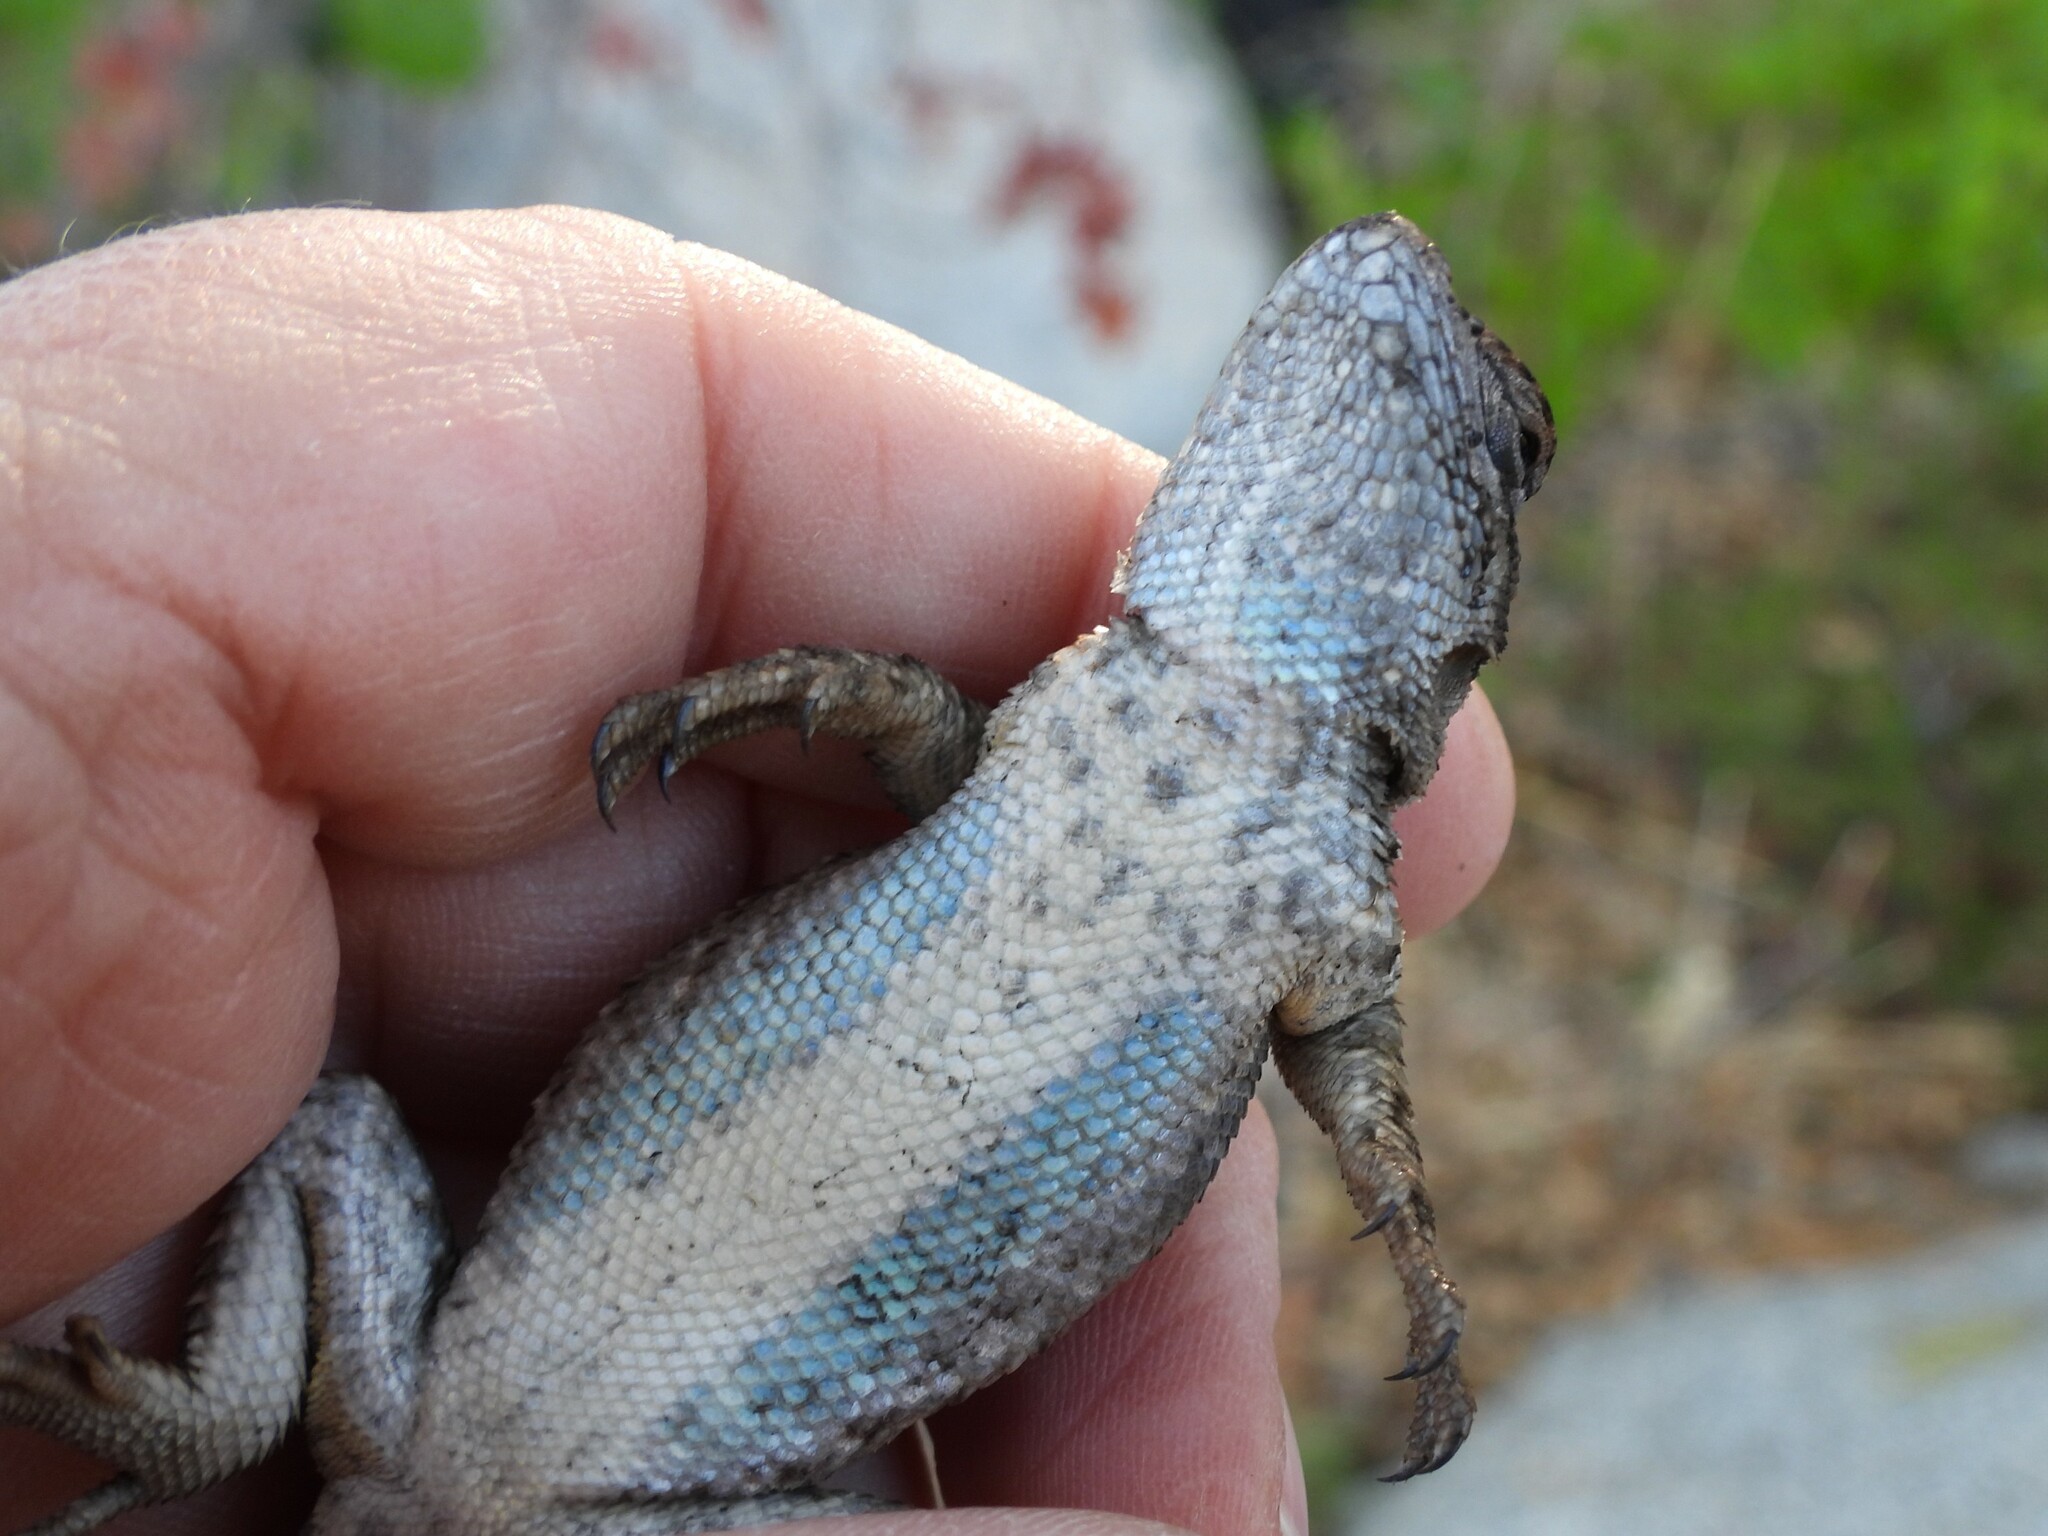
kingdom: Animalia
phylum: Chordata
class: Squamata
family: Phrynosomatidae
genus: Sceloporus
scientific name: Sceloporus occidentalis
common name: Western fence lizard
